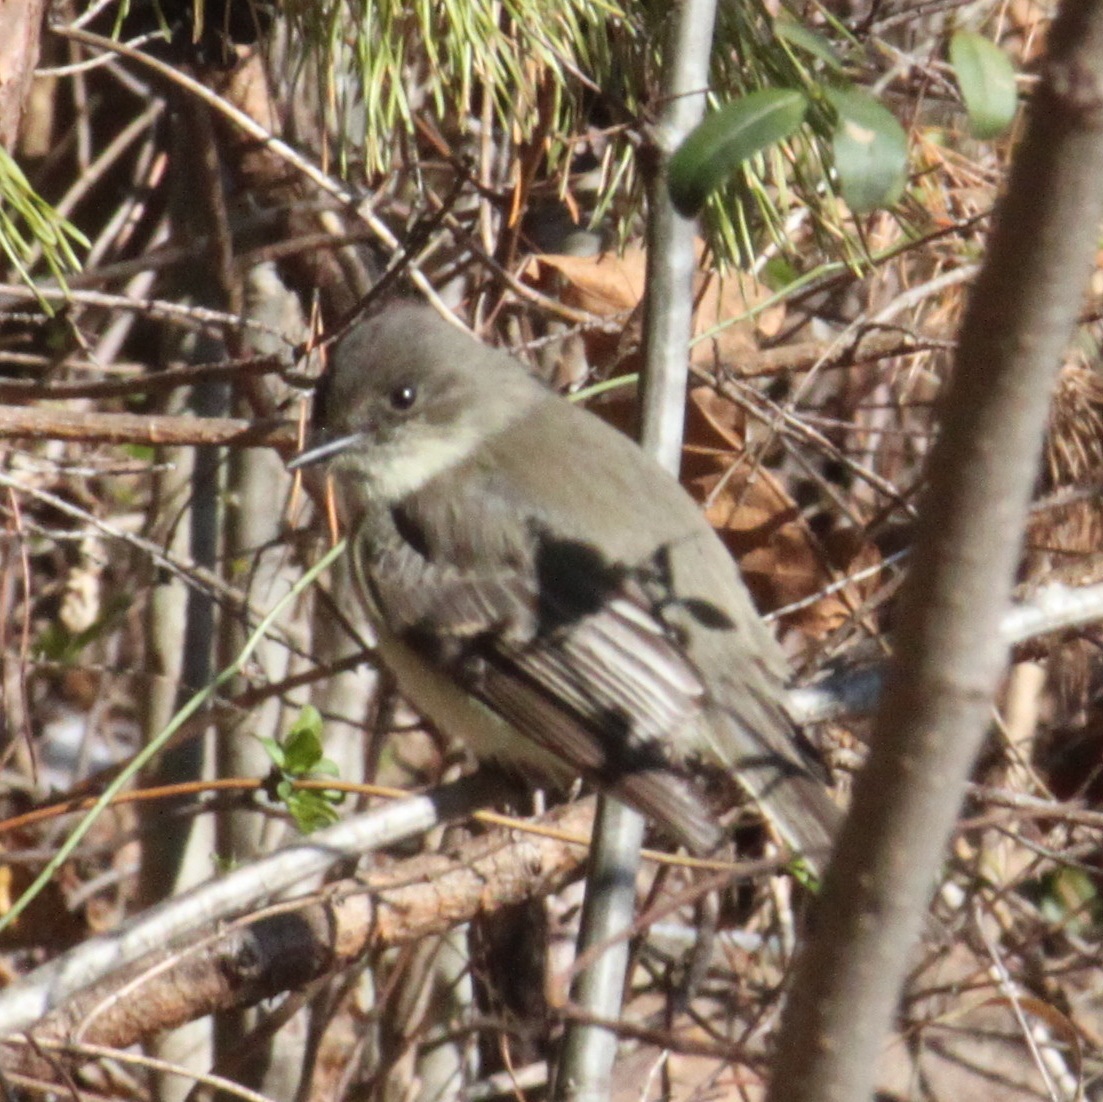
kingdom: Animalia
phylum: Chordata
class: Aves
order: Passeriformes
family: Tyrannidae
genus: Sayornis
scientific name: Sayornis phoebe
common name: Eastern phoebe
